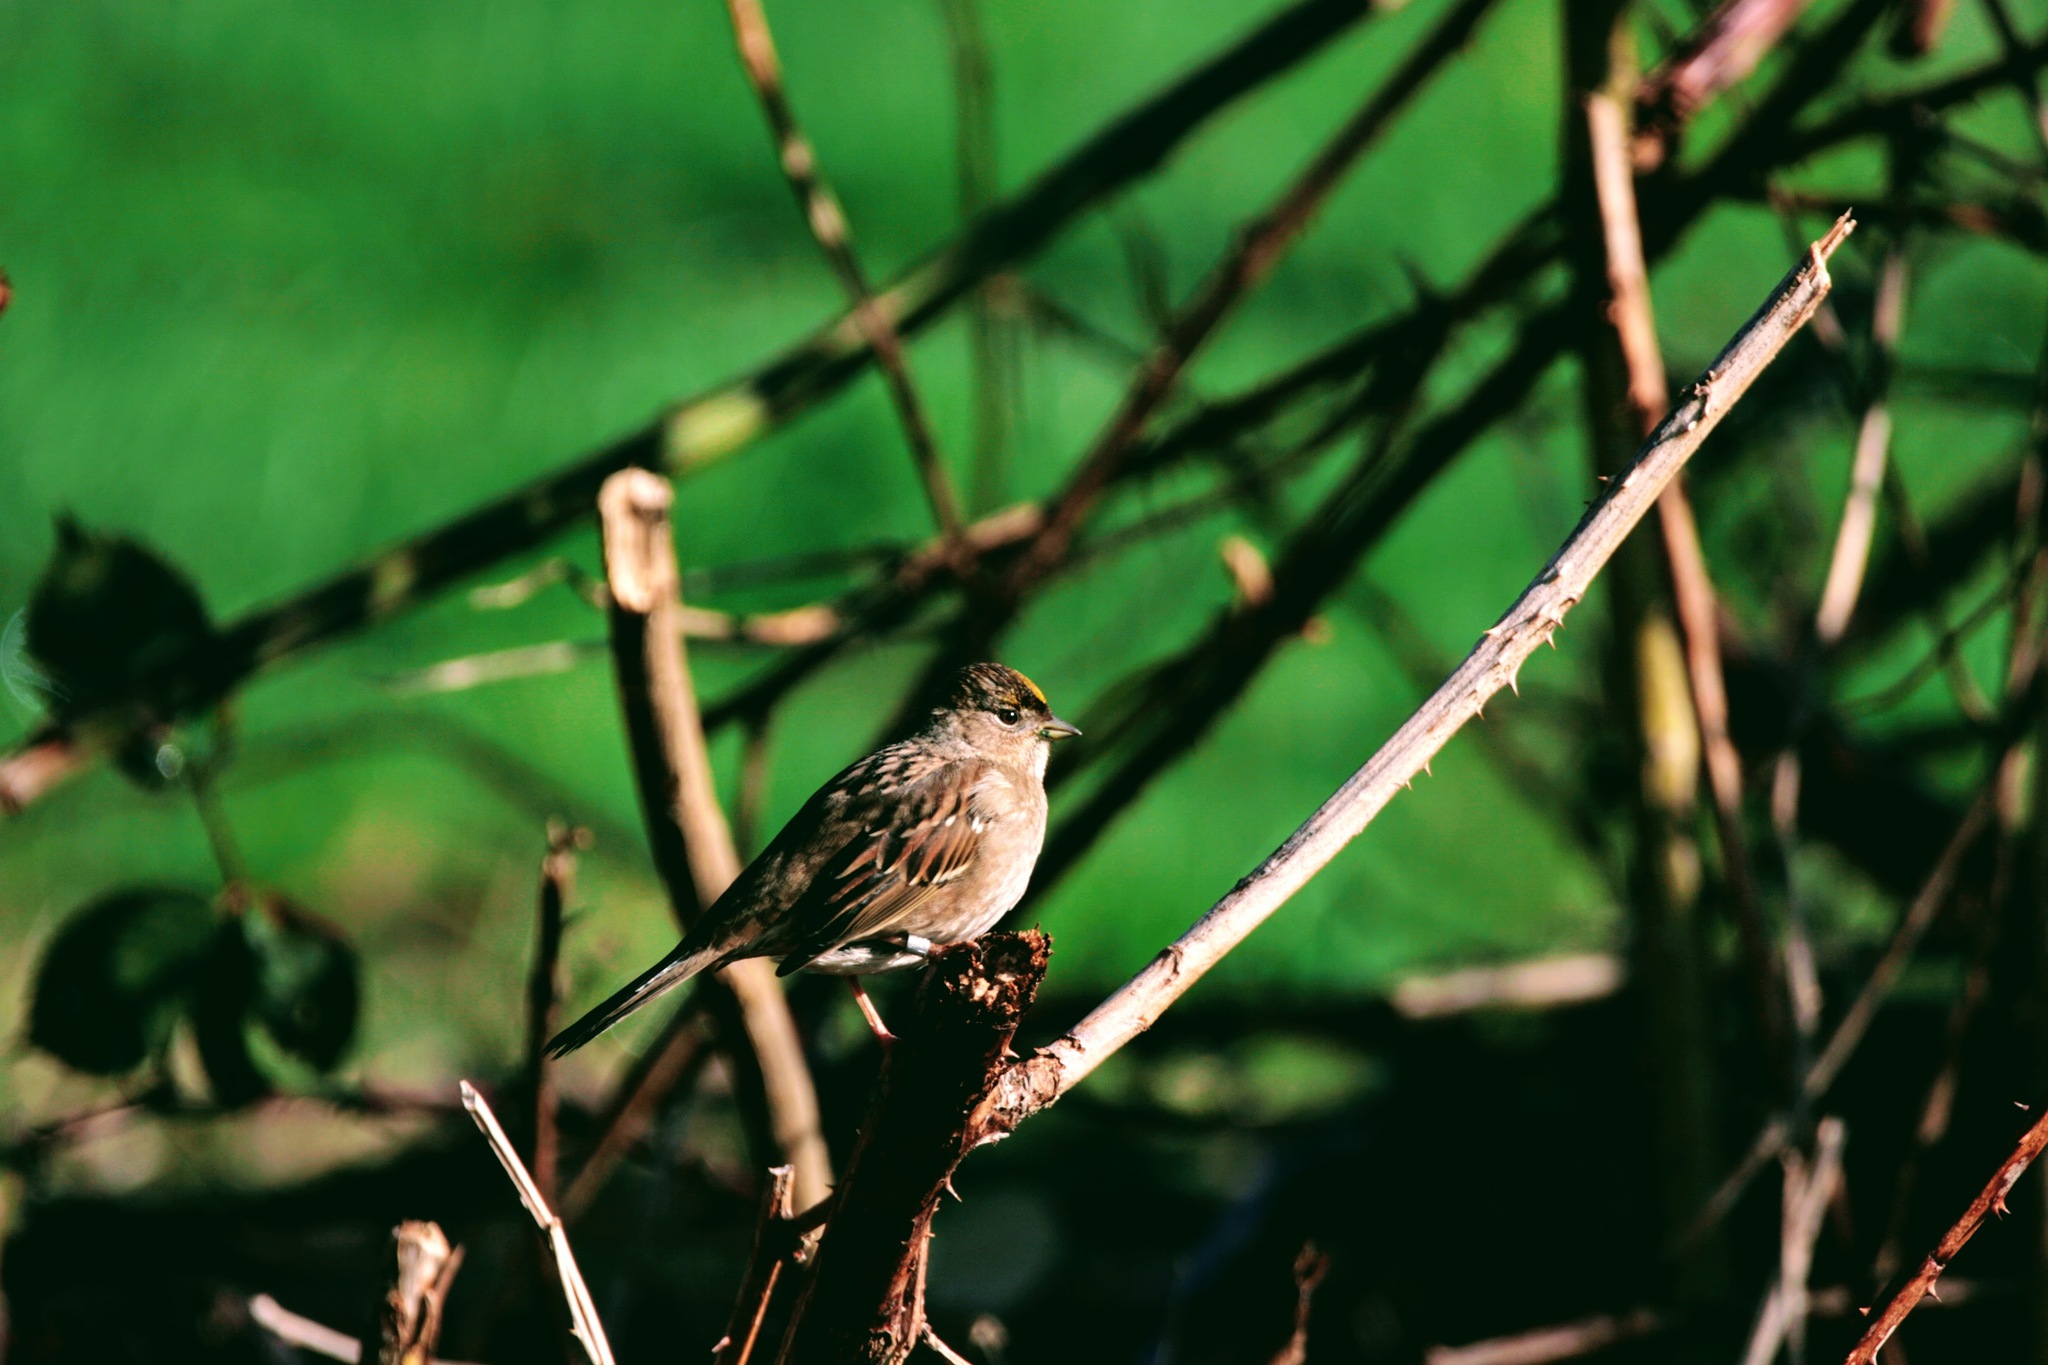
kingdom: Animalia
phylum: Chordata
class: Aves
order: Passeriformes
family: Passerellidae
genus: Zonotrichia
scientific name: Zonotrichia atricapilla
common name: Golden-crowned sparrow
